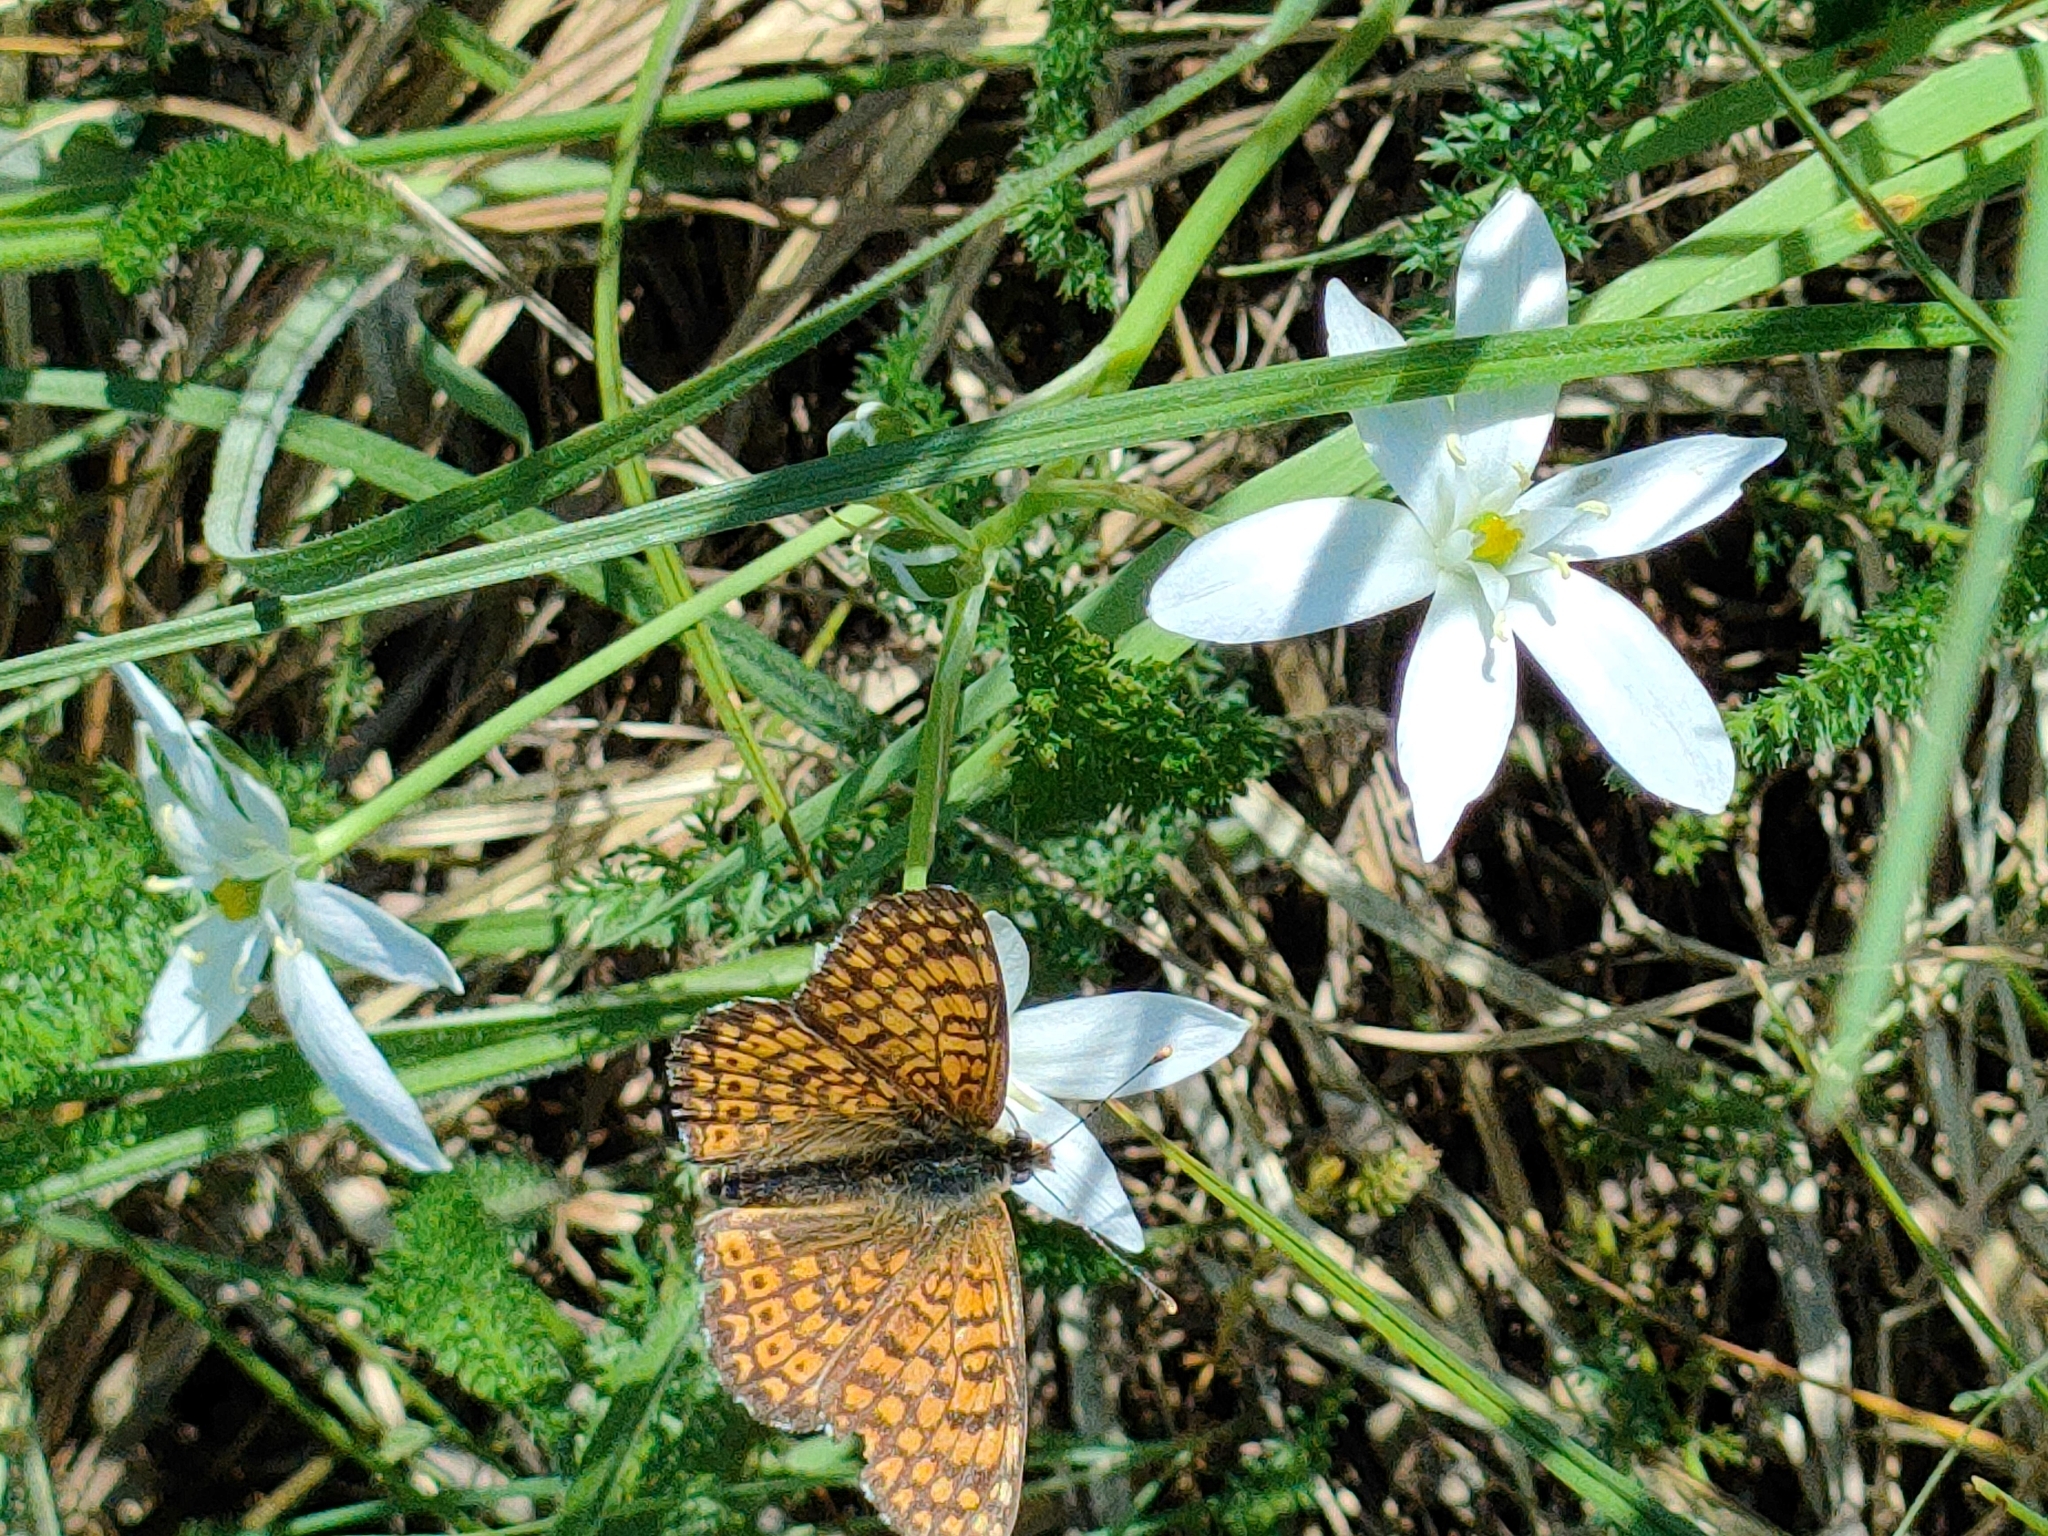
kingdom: Animalia
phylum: Arthropoda
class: Insecta
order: Lepidoptera
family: Nymphalidae
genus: Melitaea
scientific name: Melitaea cinxia
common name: Glanville fritillary
